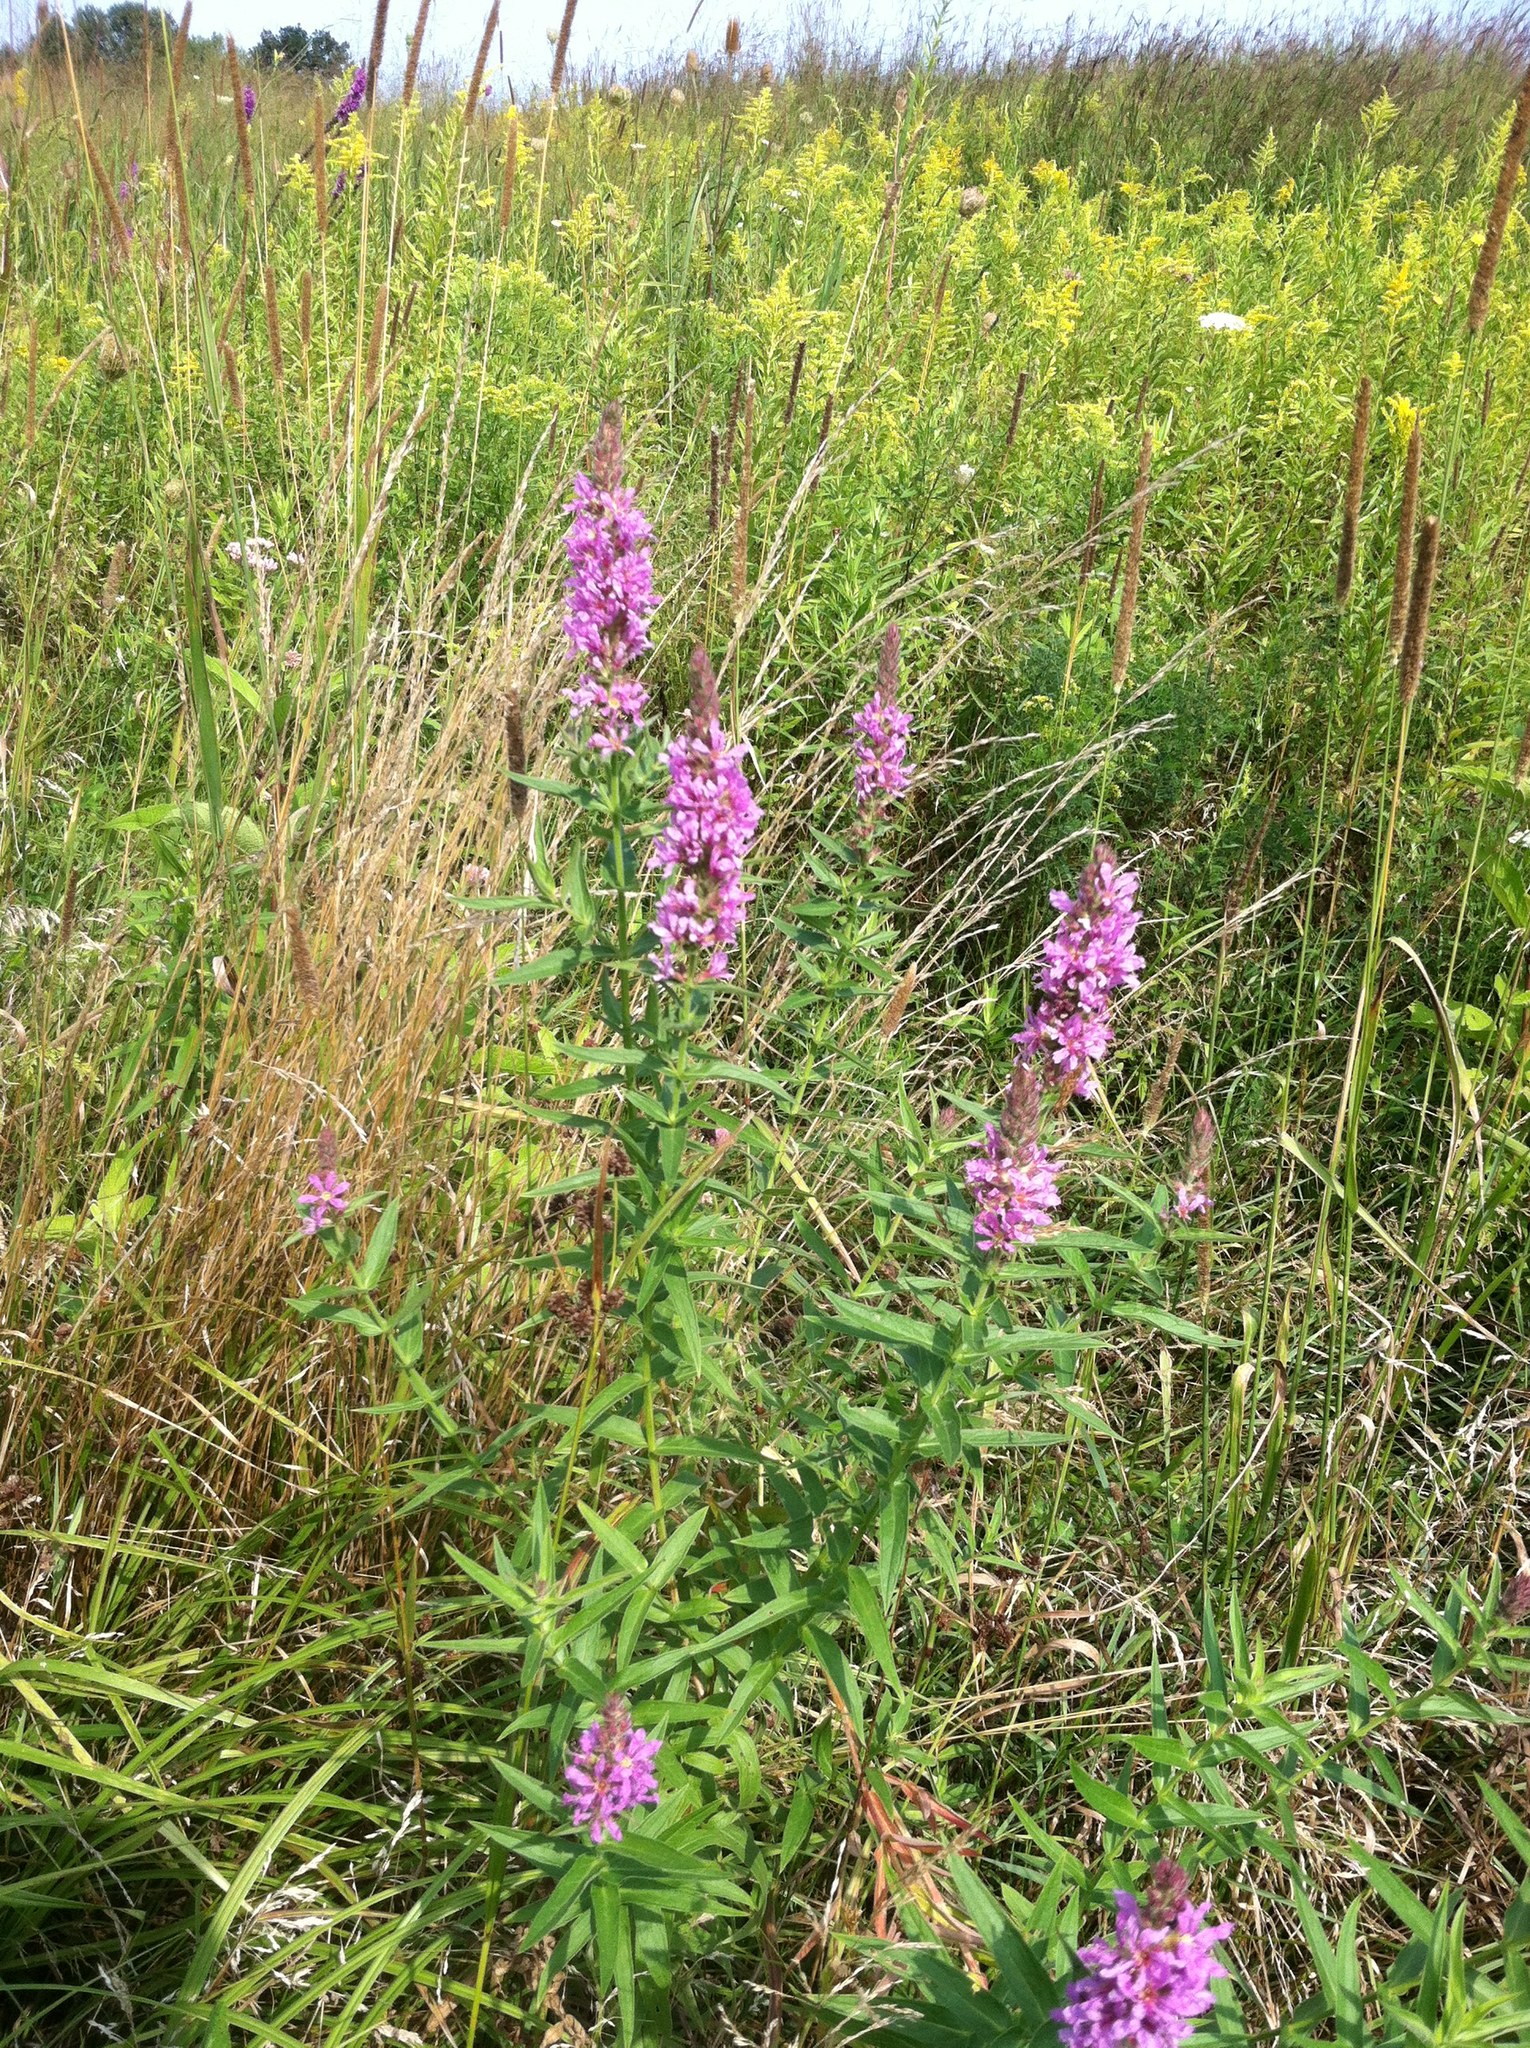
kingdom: Plantae
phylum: Tracheophyta
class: Magnoliopsida
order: Myrtales
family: Lythraceae
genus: Lythrum
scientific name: Lythrum salicaria
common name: Purple loosestrife
